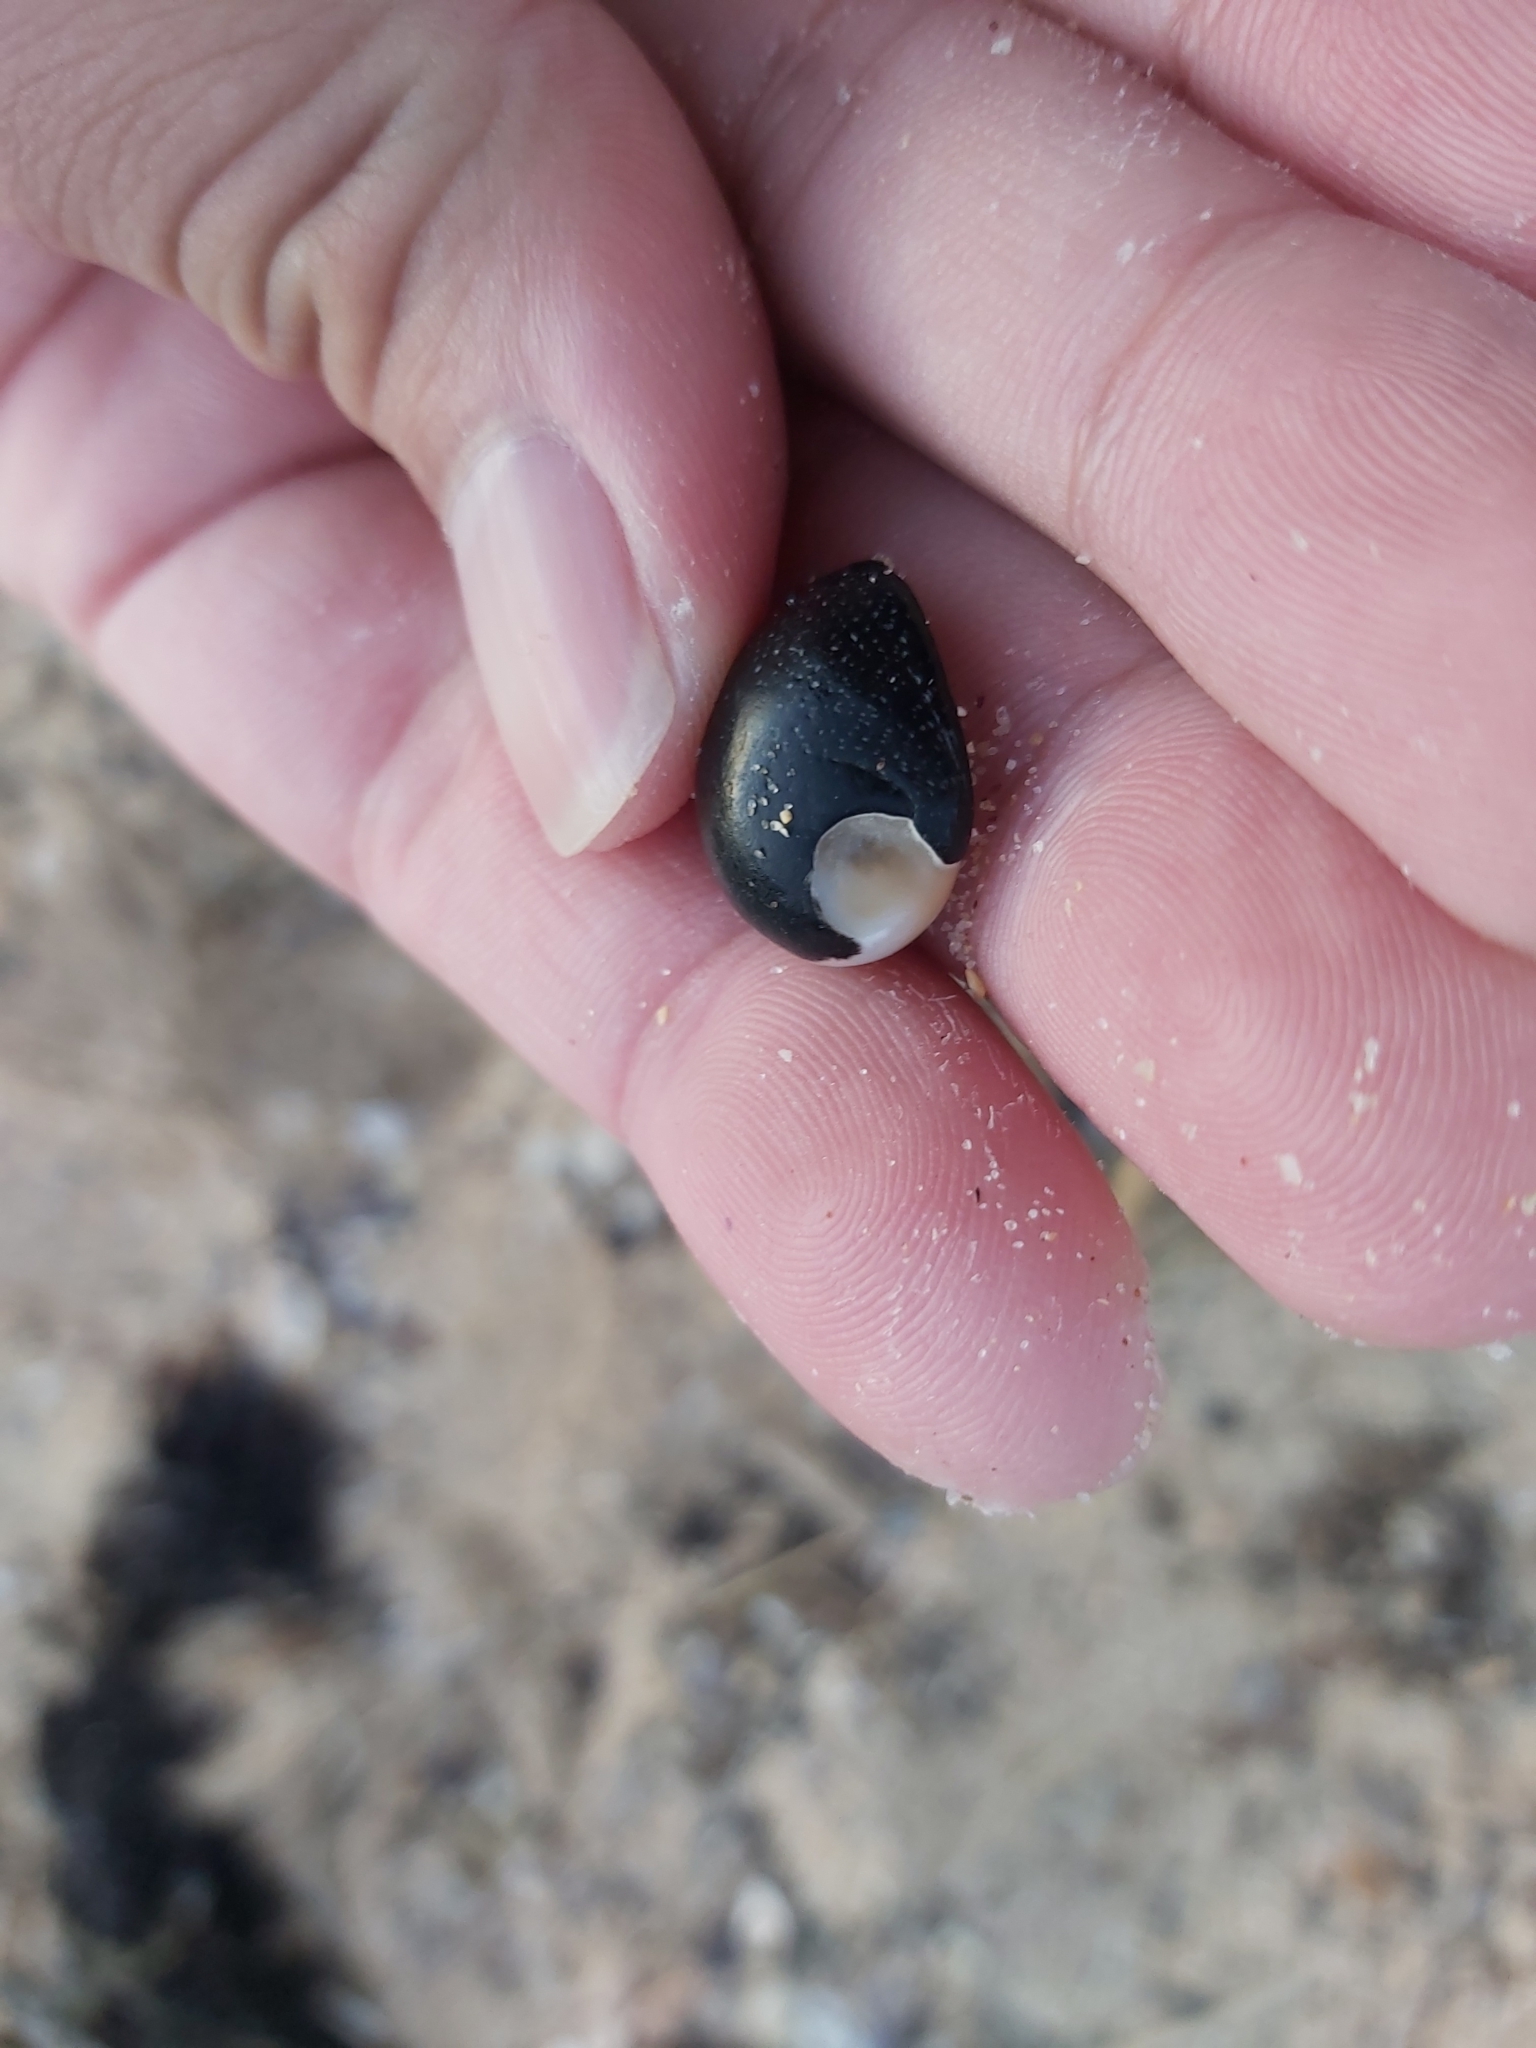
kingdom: Animalia
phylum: Mollusca
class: Gastropoda
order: Cycloneritida
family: Neritidae
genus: Nerita
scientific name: Nerita melanotragus
